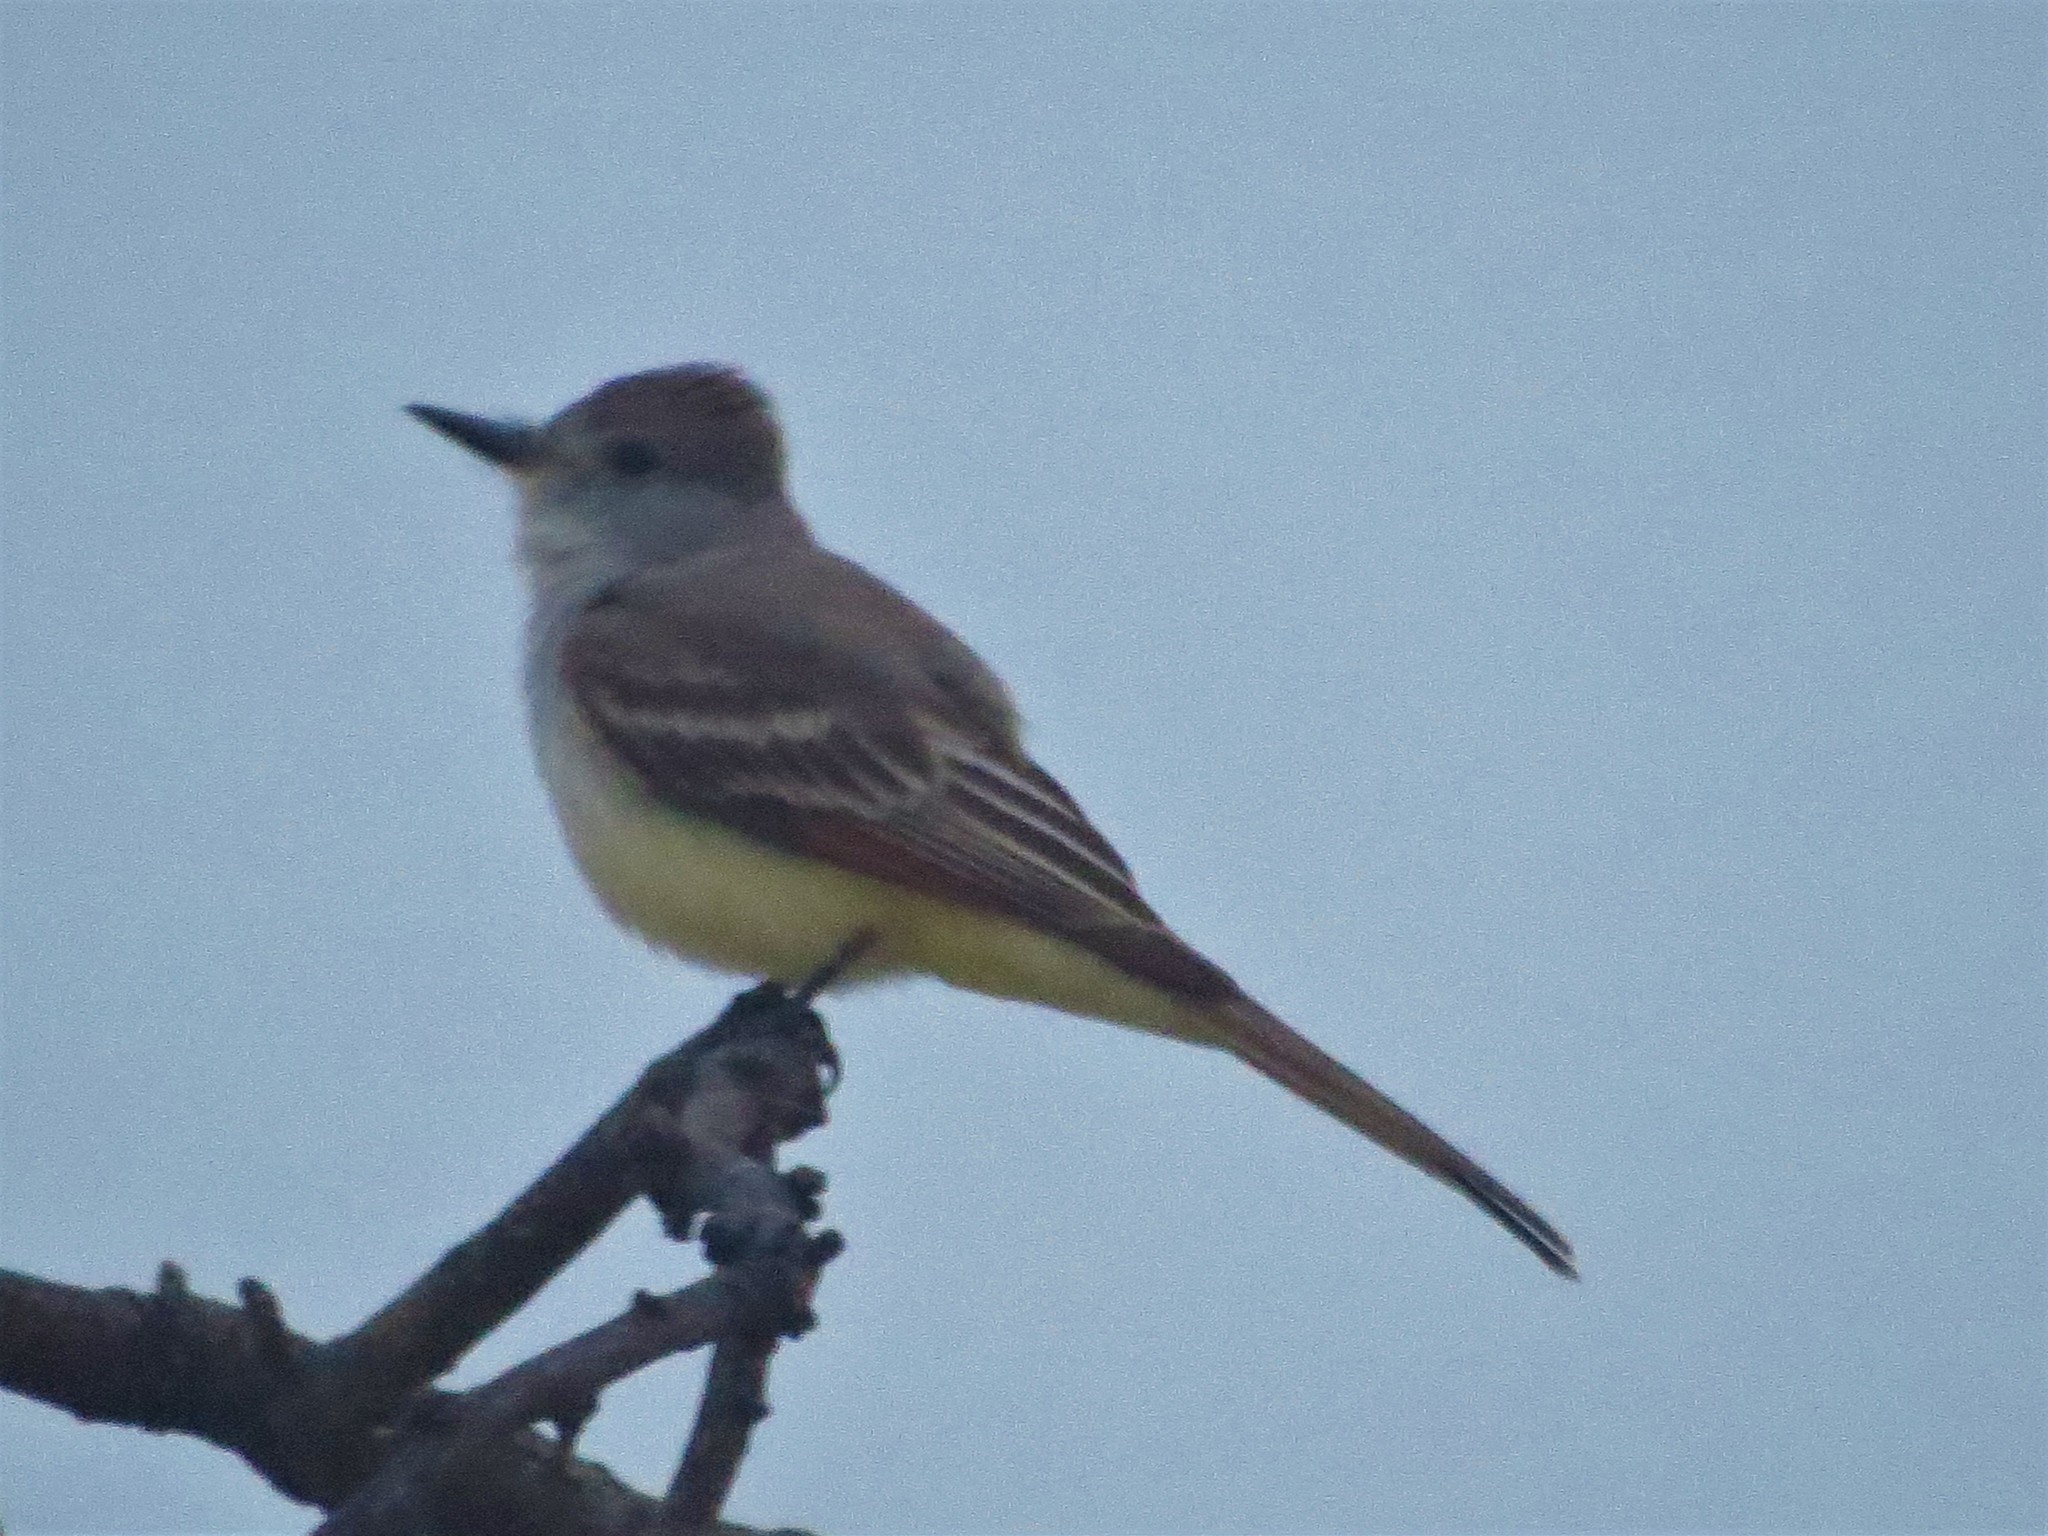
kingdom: Animalia
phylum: Chordata
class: Aves
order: Passeriformes
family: Tyrannidae
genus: Myiarchus
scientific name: Myiarchus cinerascens
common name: Ash-throated flycatcher
